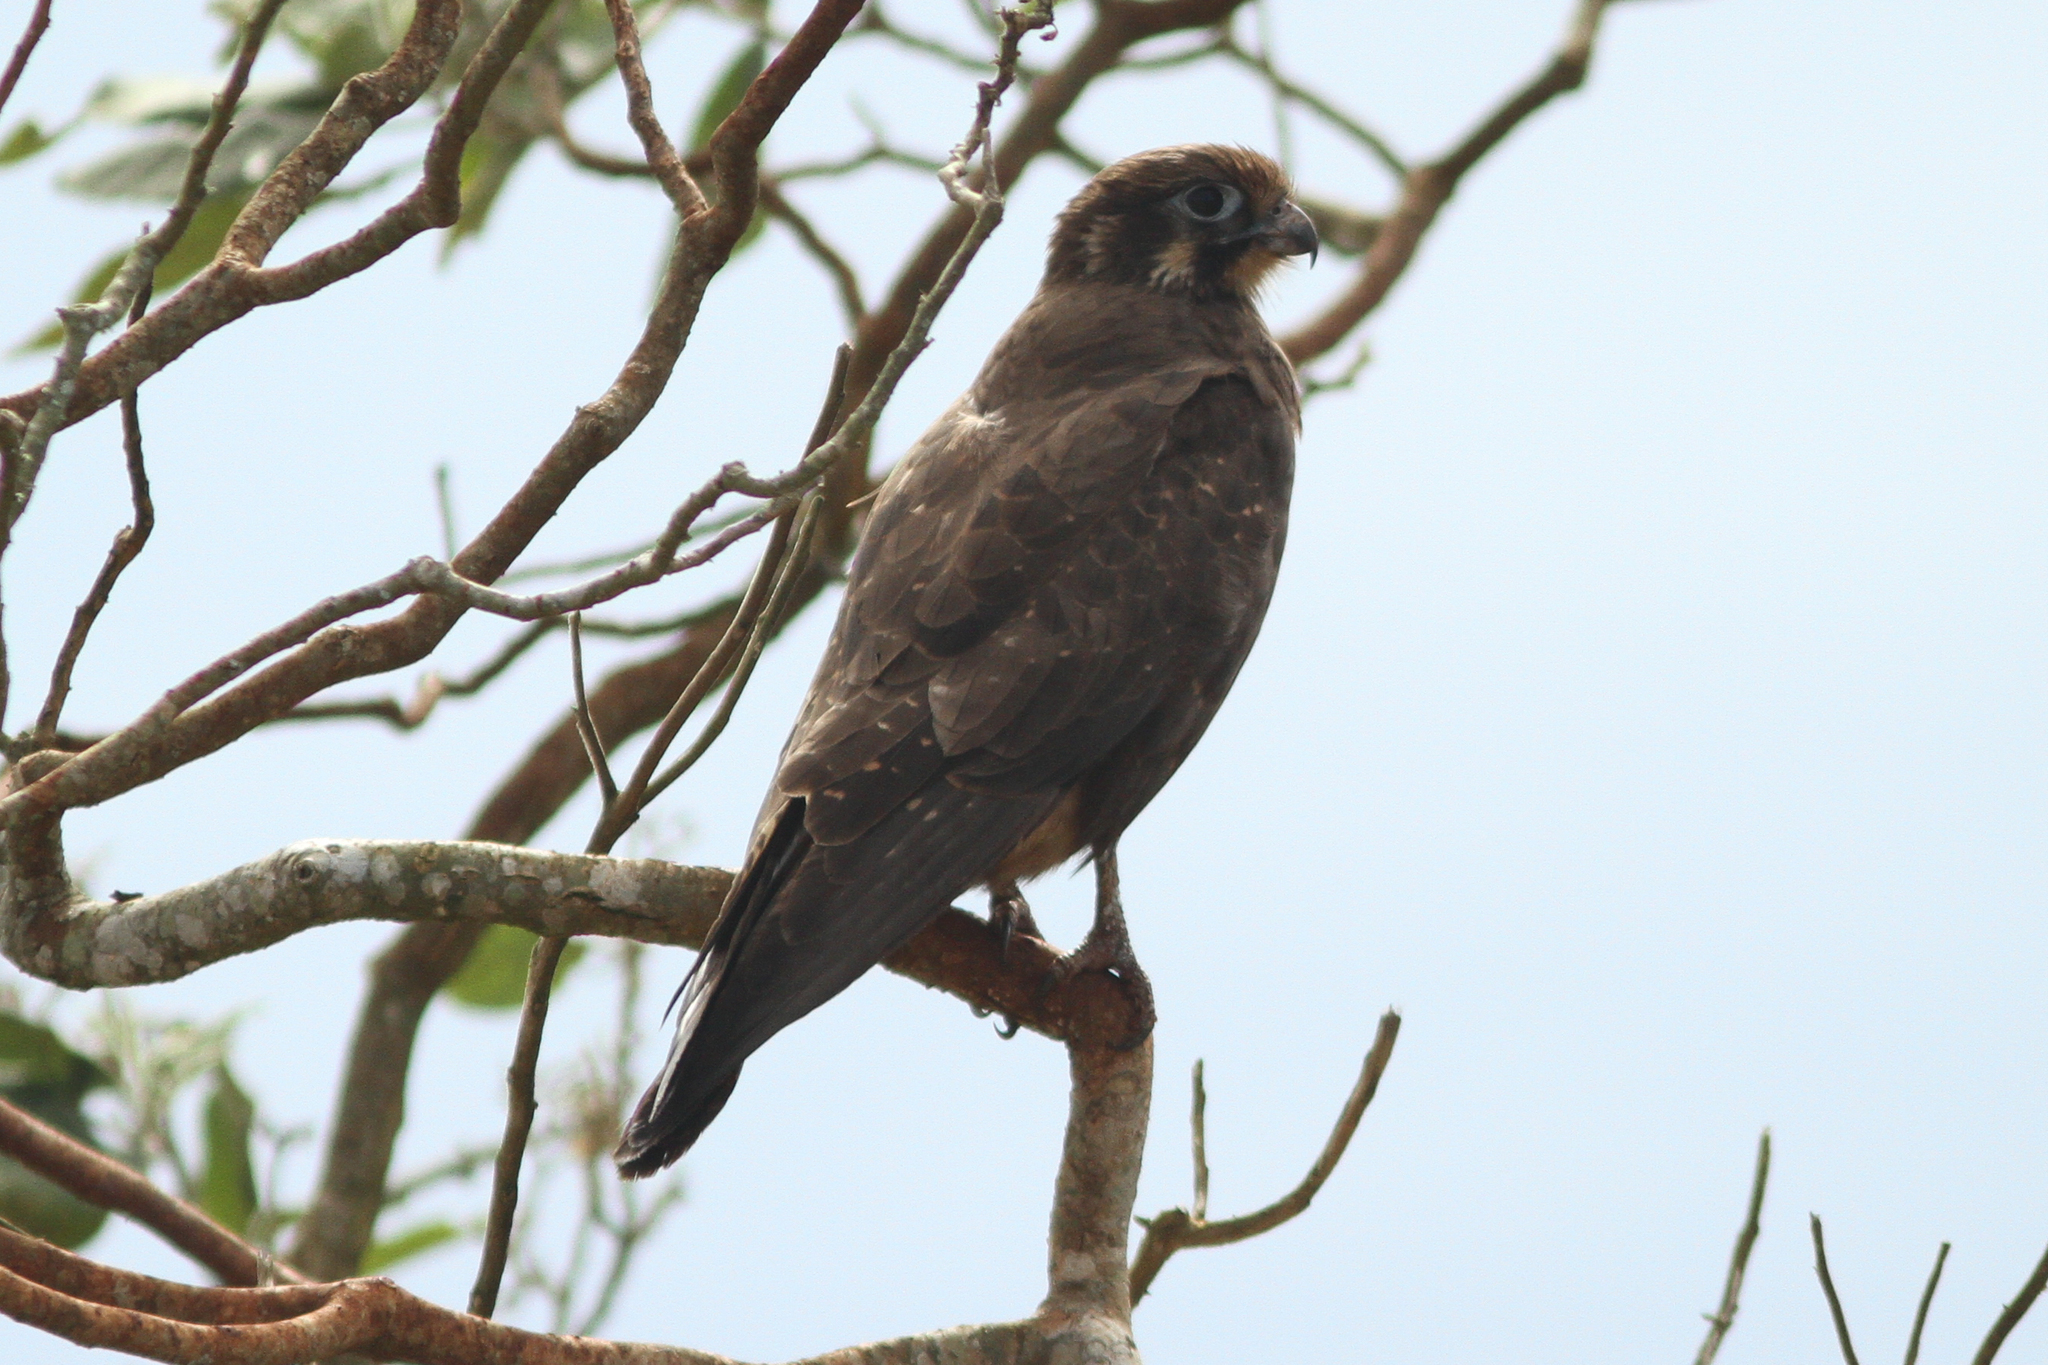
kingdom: Animalia
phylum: Chordata
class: Aves
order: Falconiformes
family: Falconidae
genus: Falco
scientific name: Falco berigora
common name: Brown falcon
